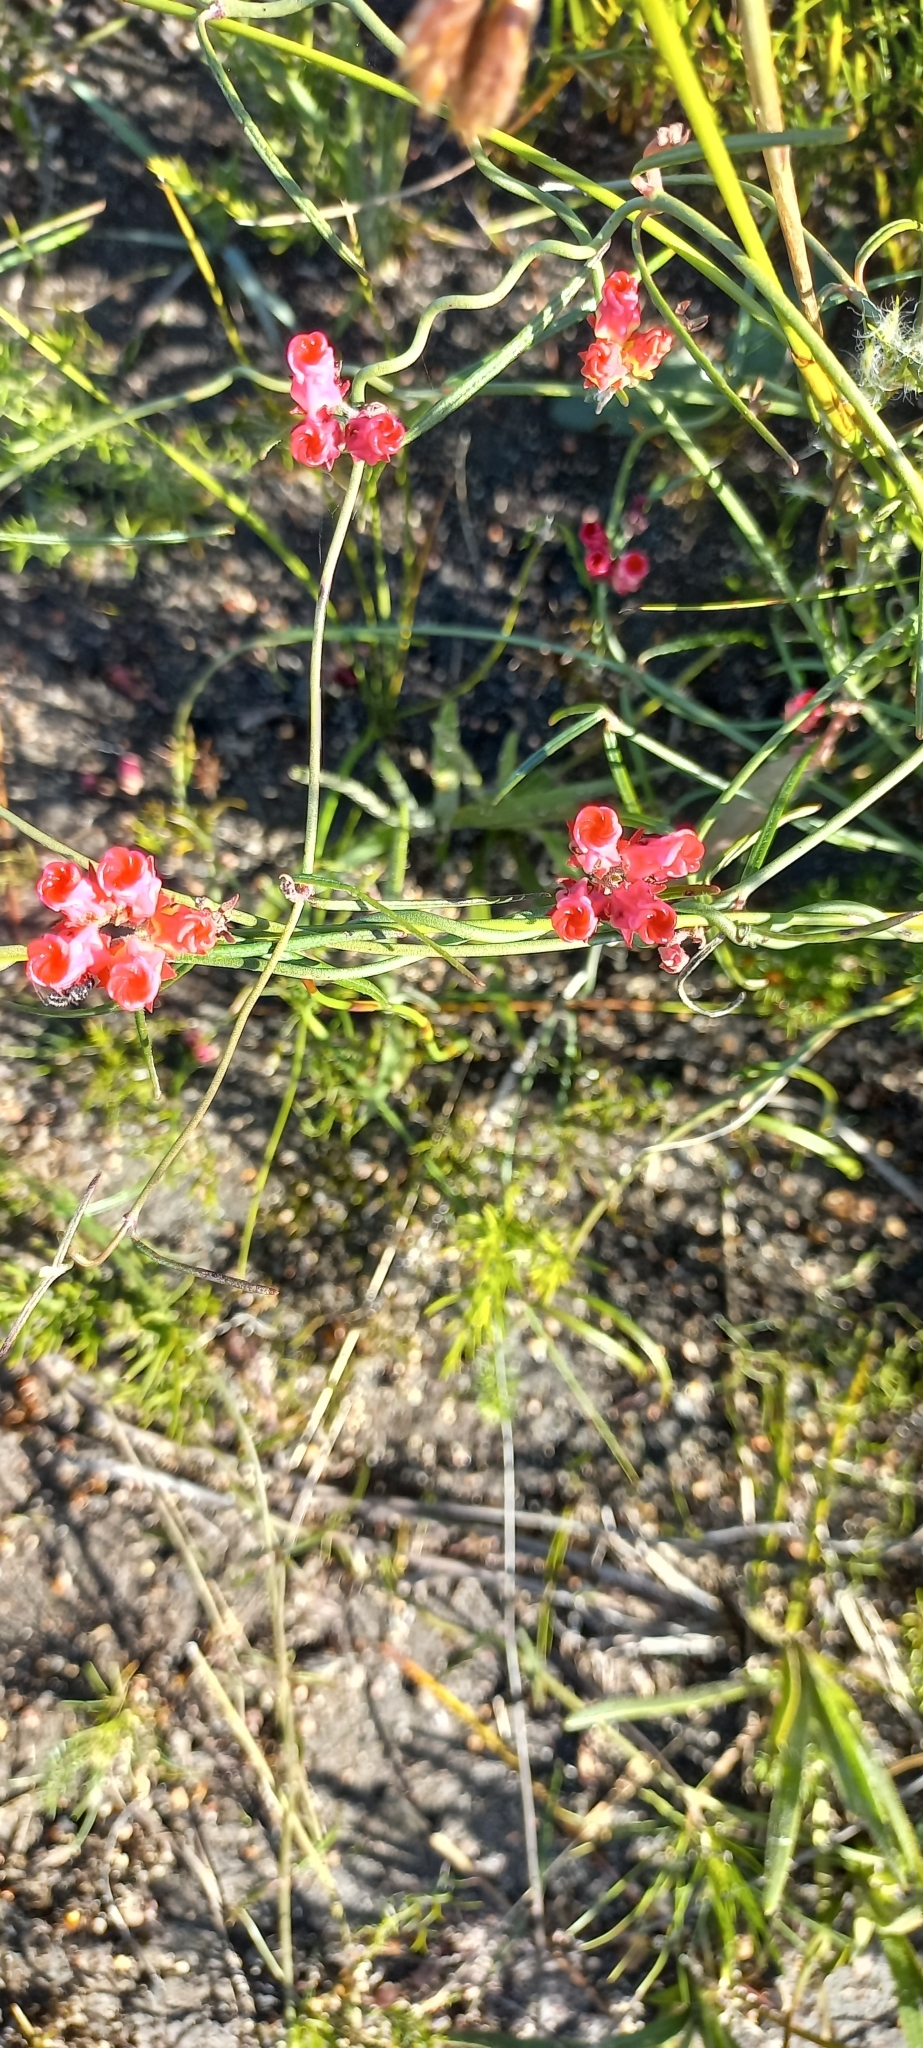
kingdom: Plantae
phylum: Tracheophyta
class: Magnoliopsida
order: Gentianales
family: Apocynaceae
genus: Microloma
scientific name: Microloma tenuifolium
